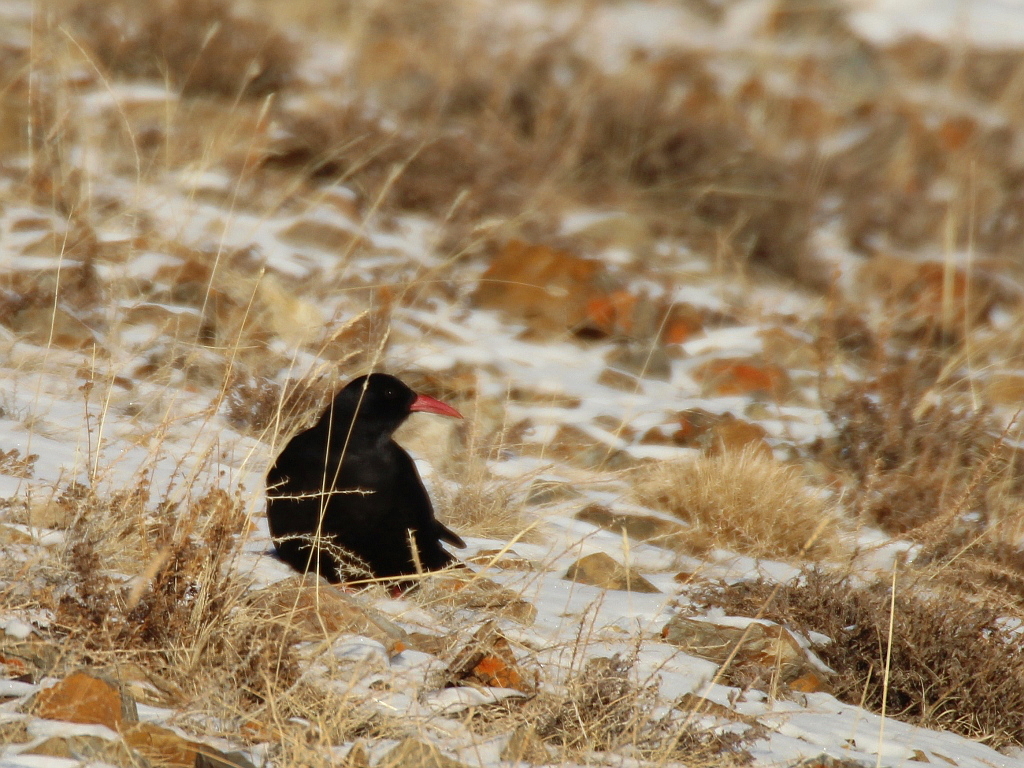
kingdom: Animalia
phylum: Chordata
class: Aves
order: Passeriformes
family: Corvidae
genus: Pyrrhocorax
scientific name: Pyrrhocorax pyrrhocorax
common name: Red-billed chough
